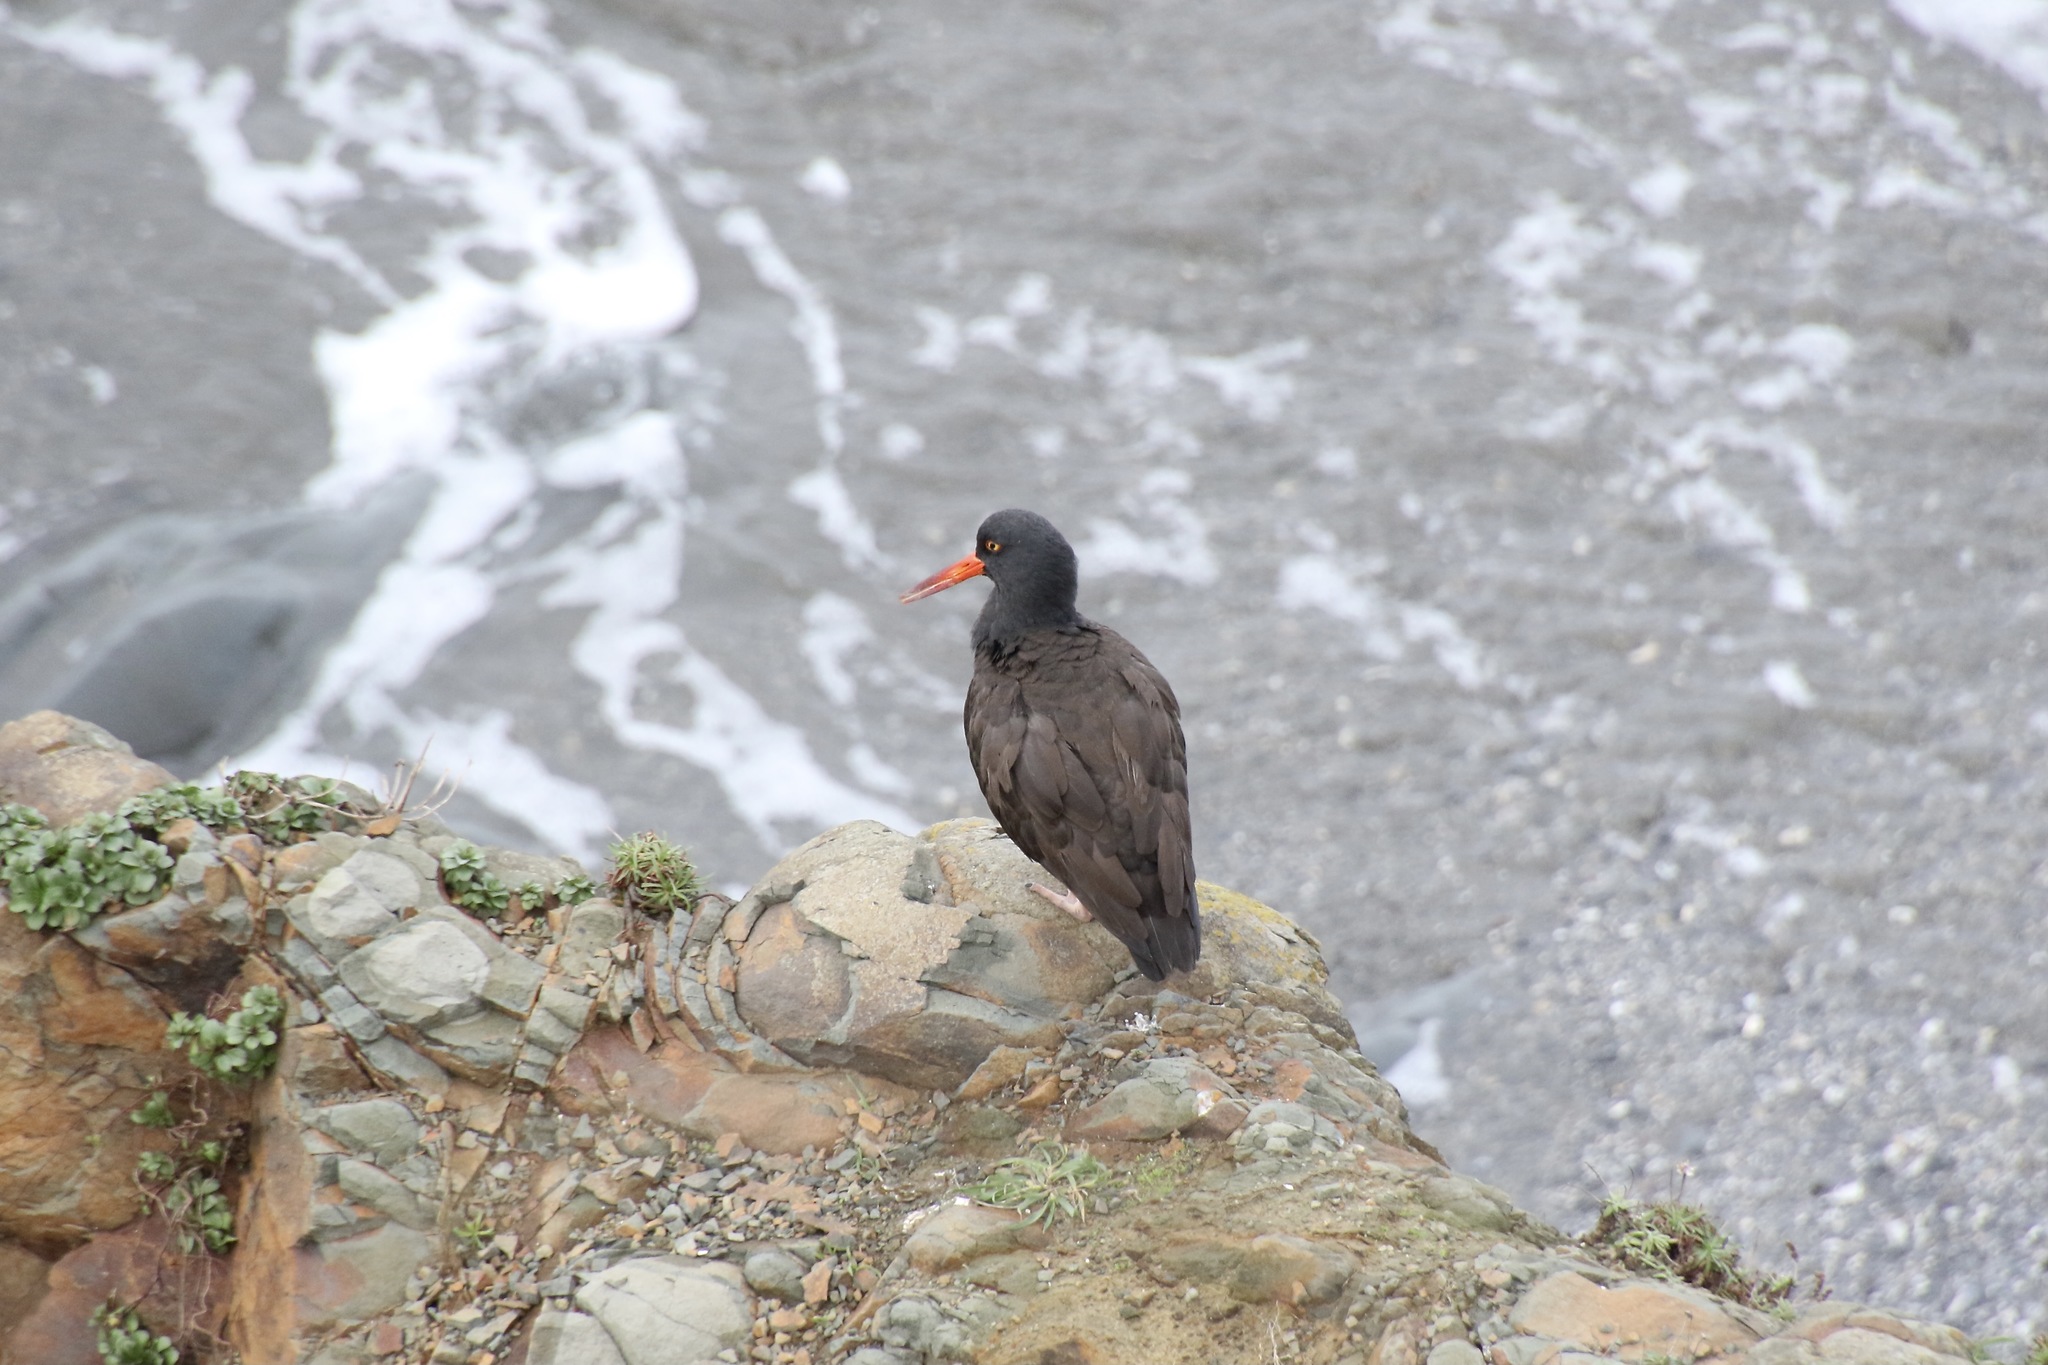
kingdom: Animalia
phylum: Chordata
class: Aves
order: Charadriiformes
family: Haematopodidae
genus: Haematopus
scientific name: Haematopus bachmani
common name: Black oystercatcher
